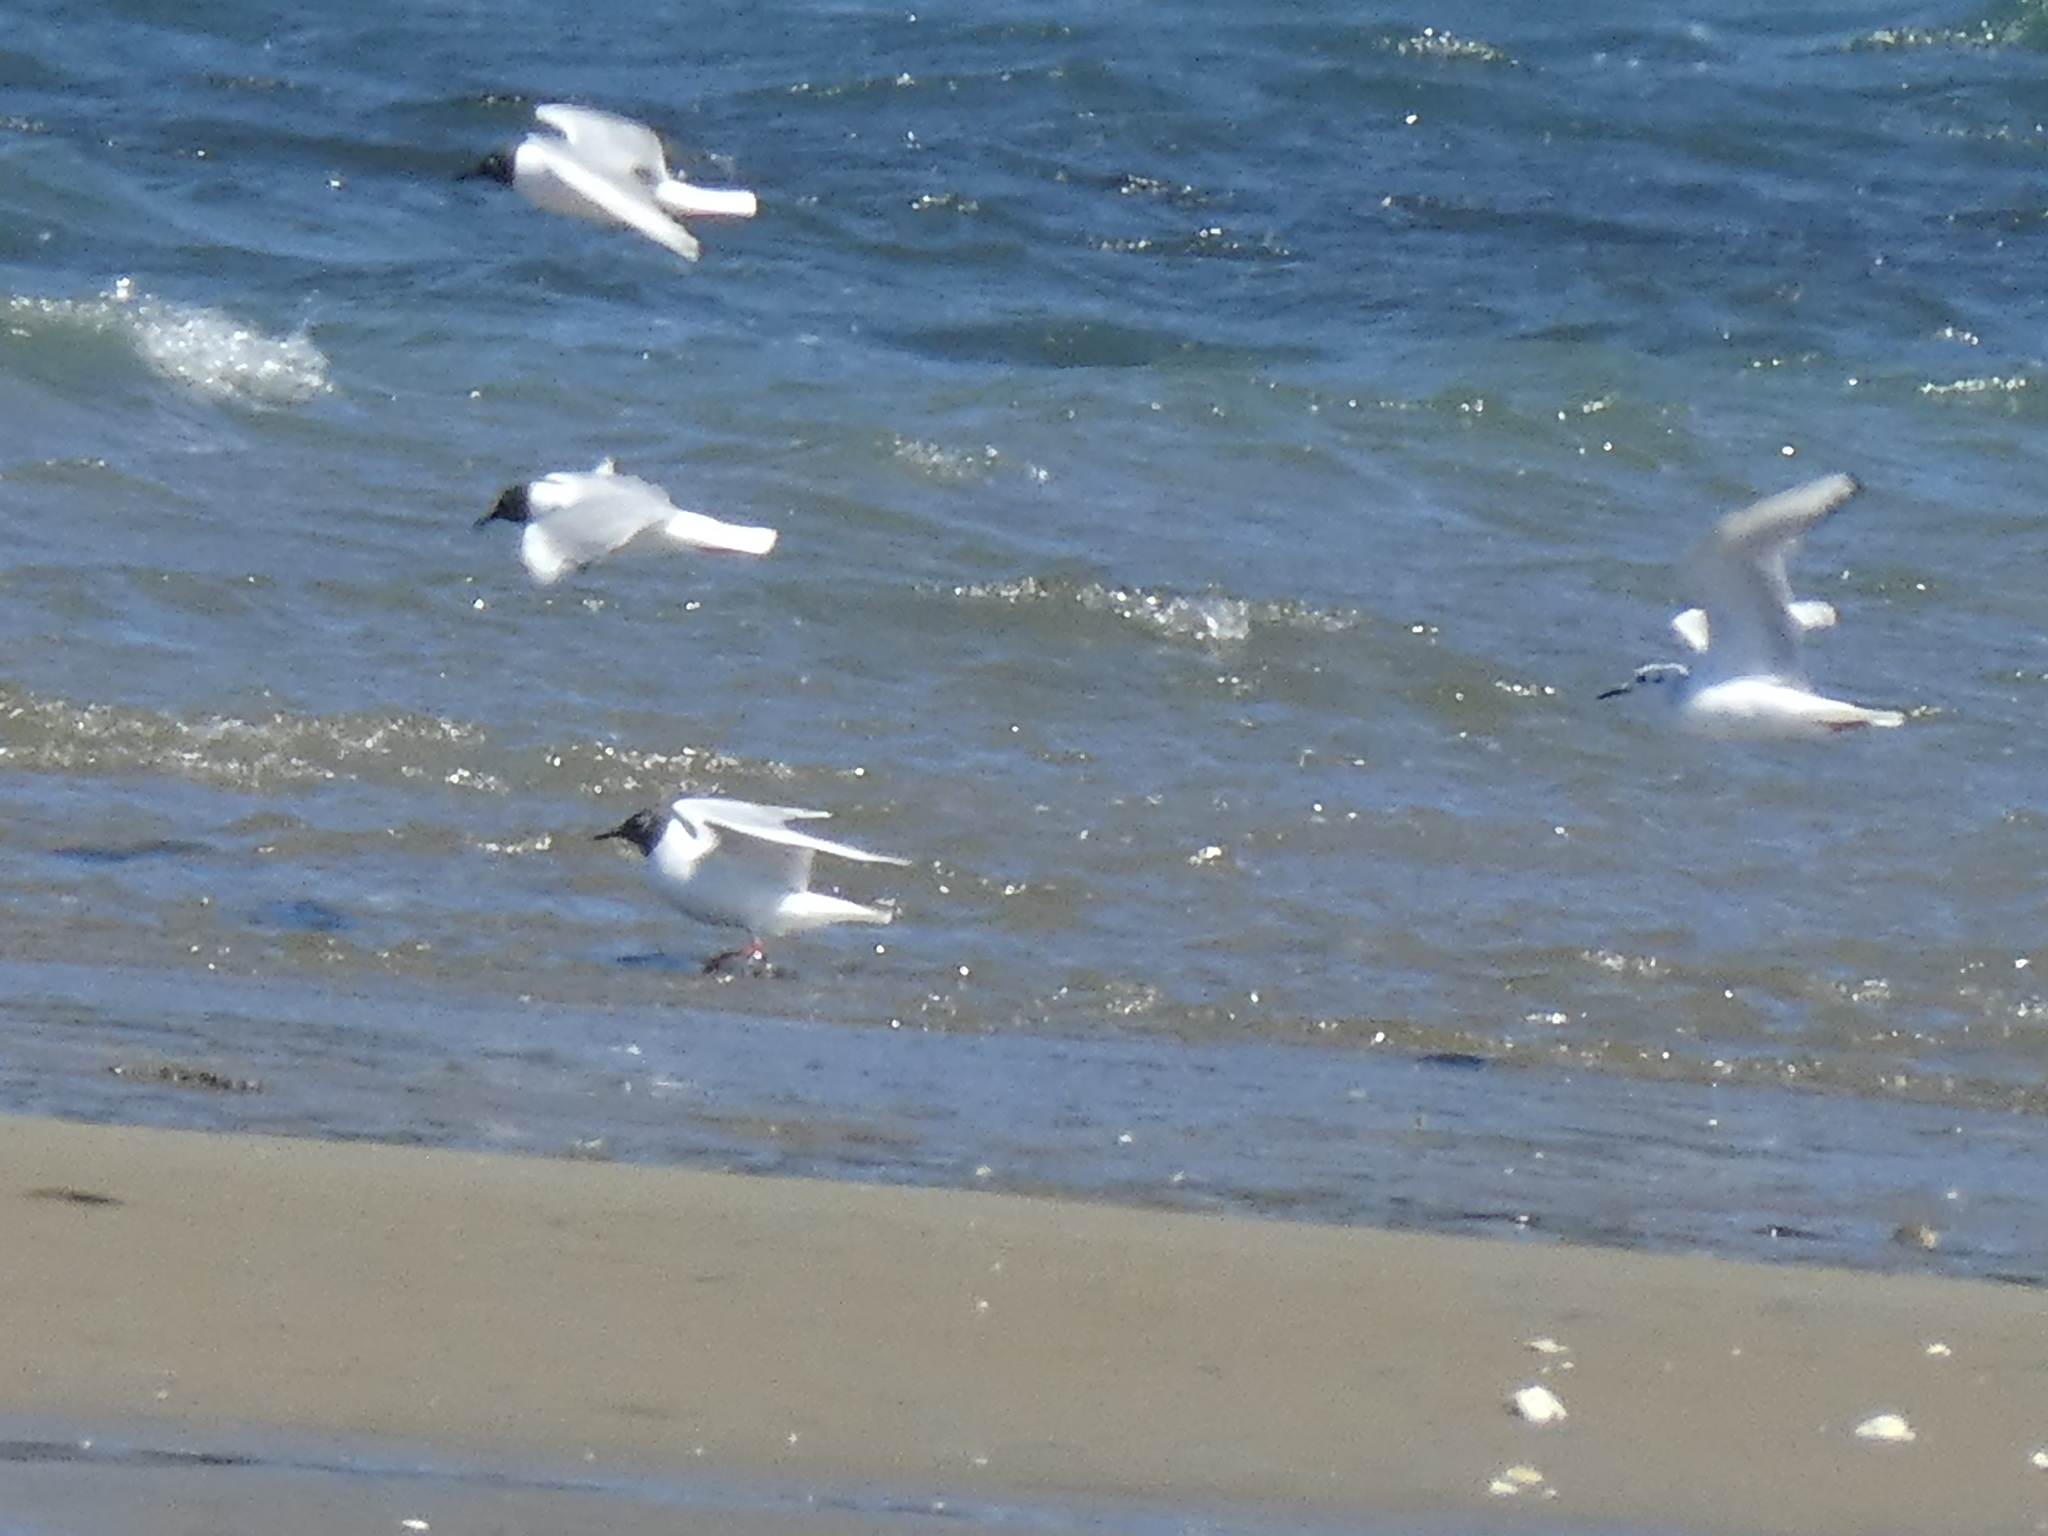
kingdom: Animalia
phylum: Chordata
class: Aves
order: Charadriiformes
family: Laridae
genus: Chroicocephalus
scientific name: Chroicocephalus philadelphia
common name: Bonaparte's gull
